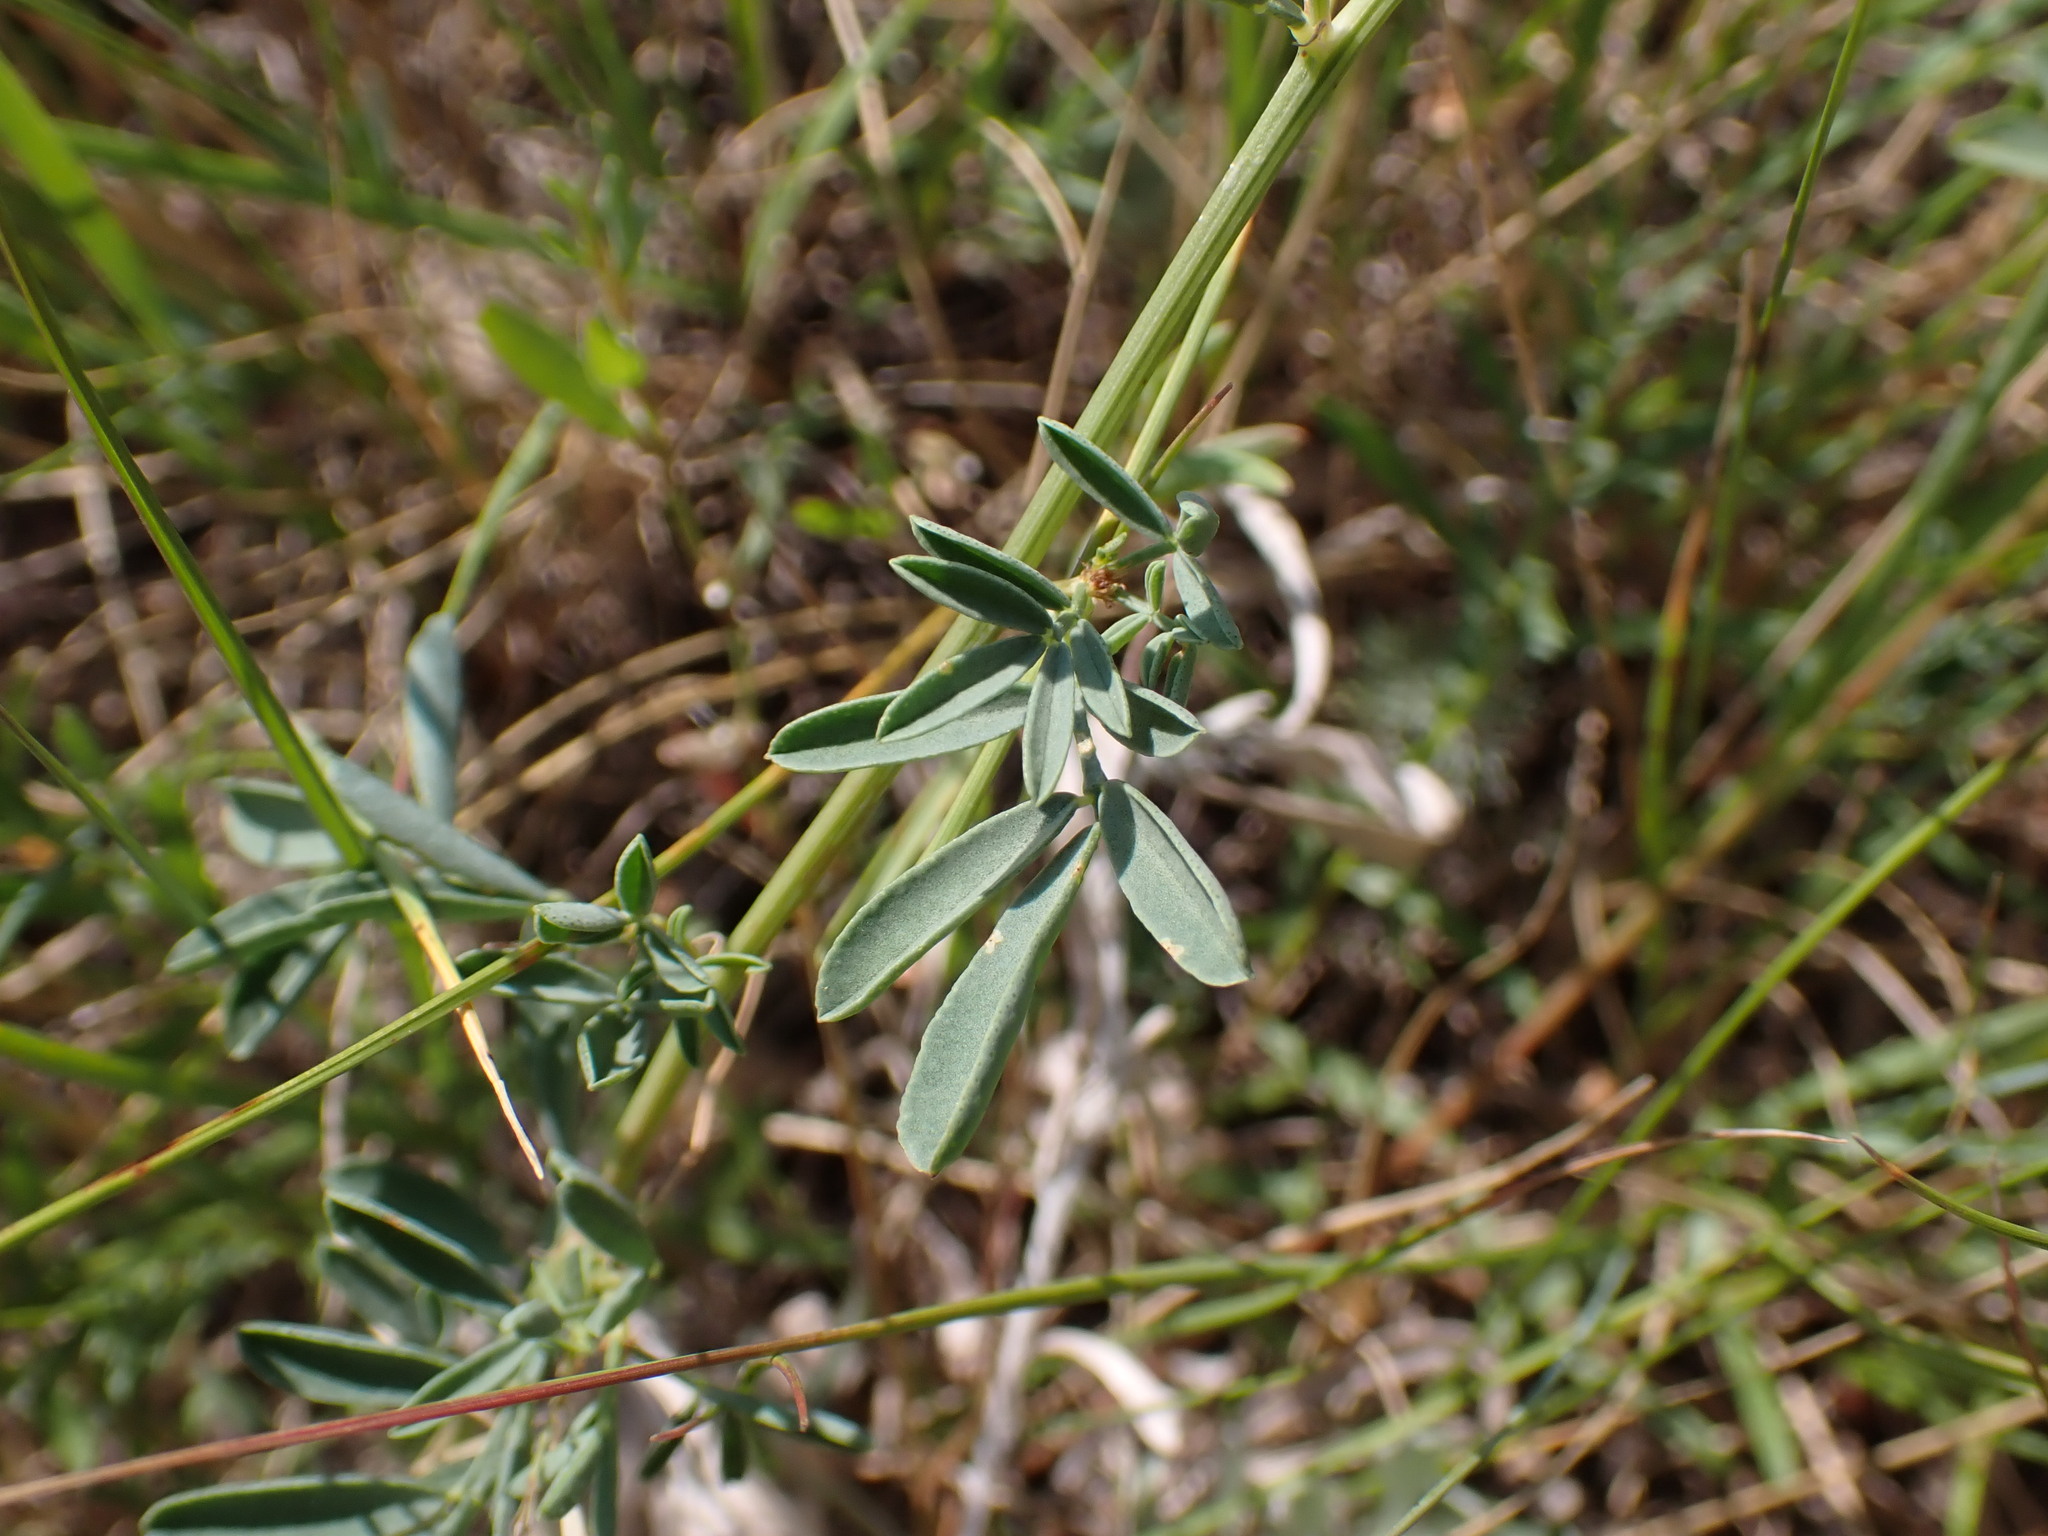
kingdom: Plantae
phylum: Tracheophyta
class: Magnoliopsida
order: Fabales
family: Fabaceae
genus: Dalea
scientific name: Dalea candida
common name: White prairie-clover
